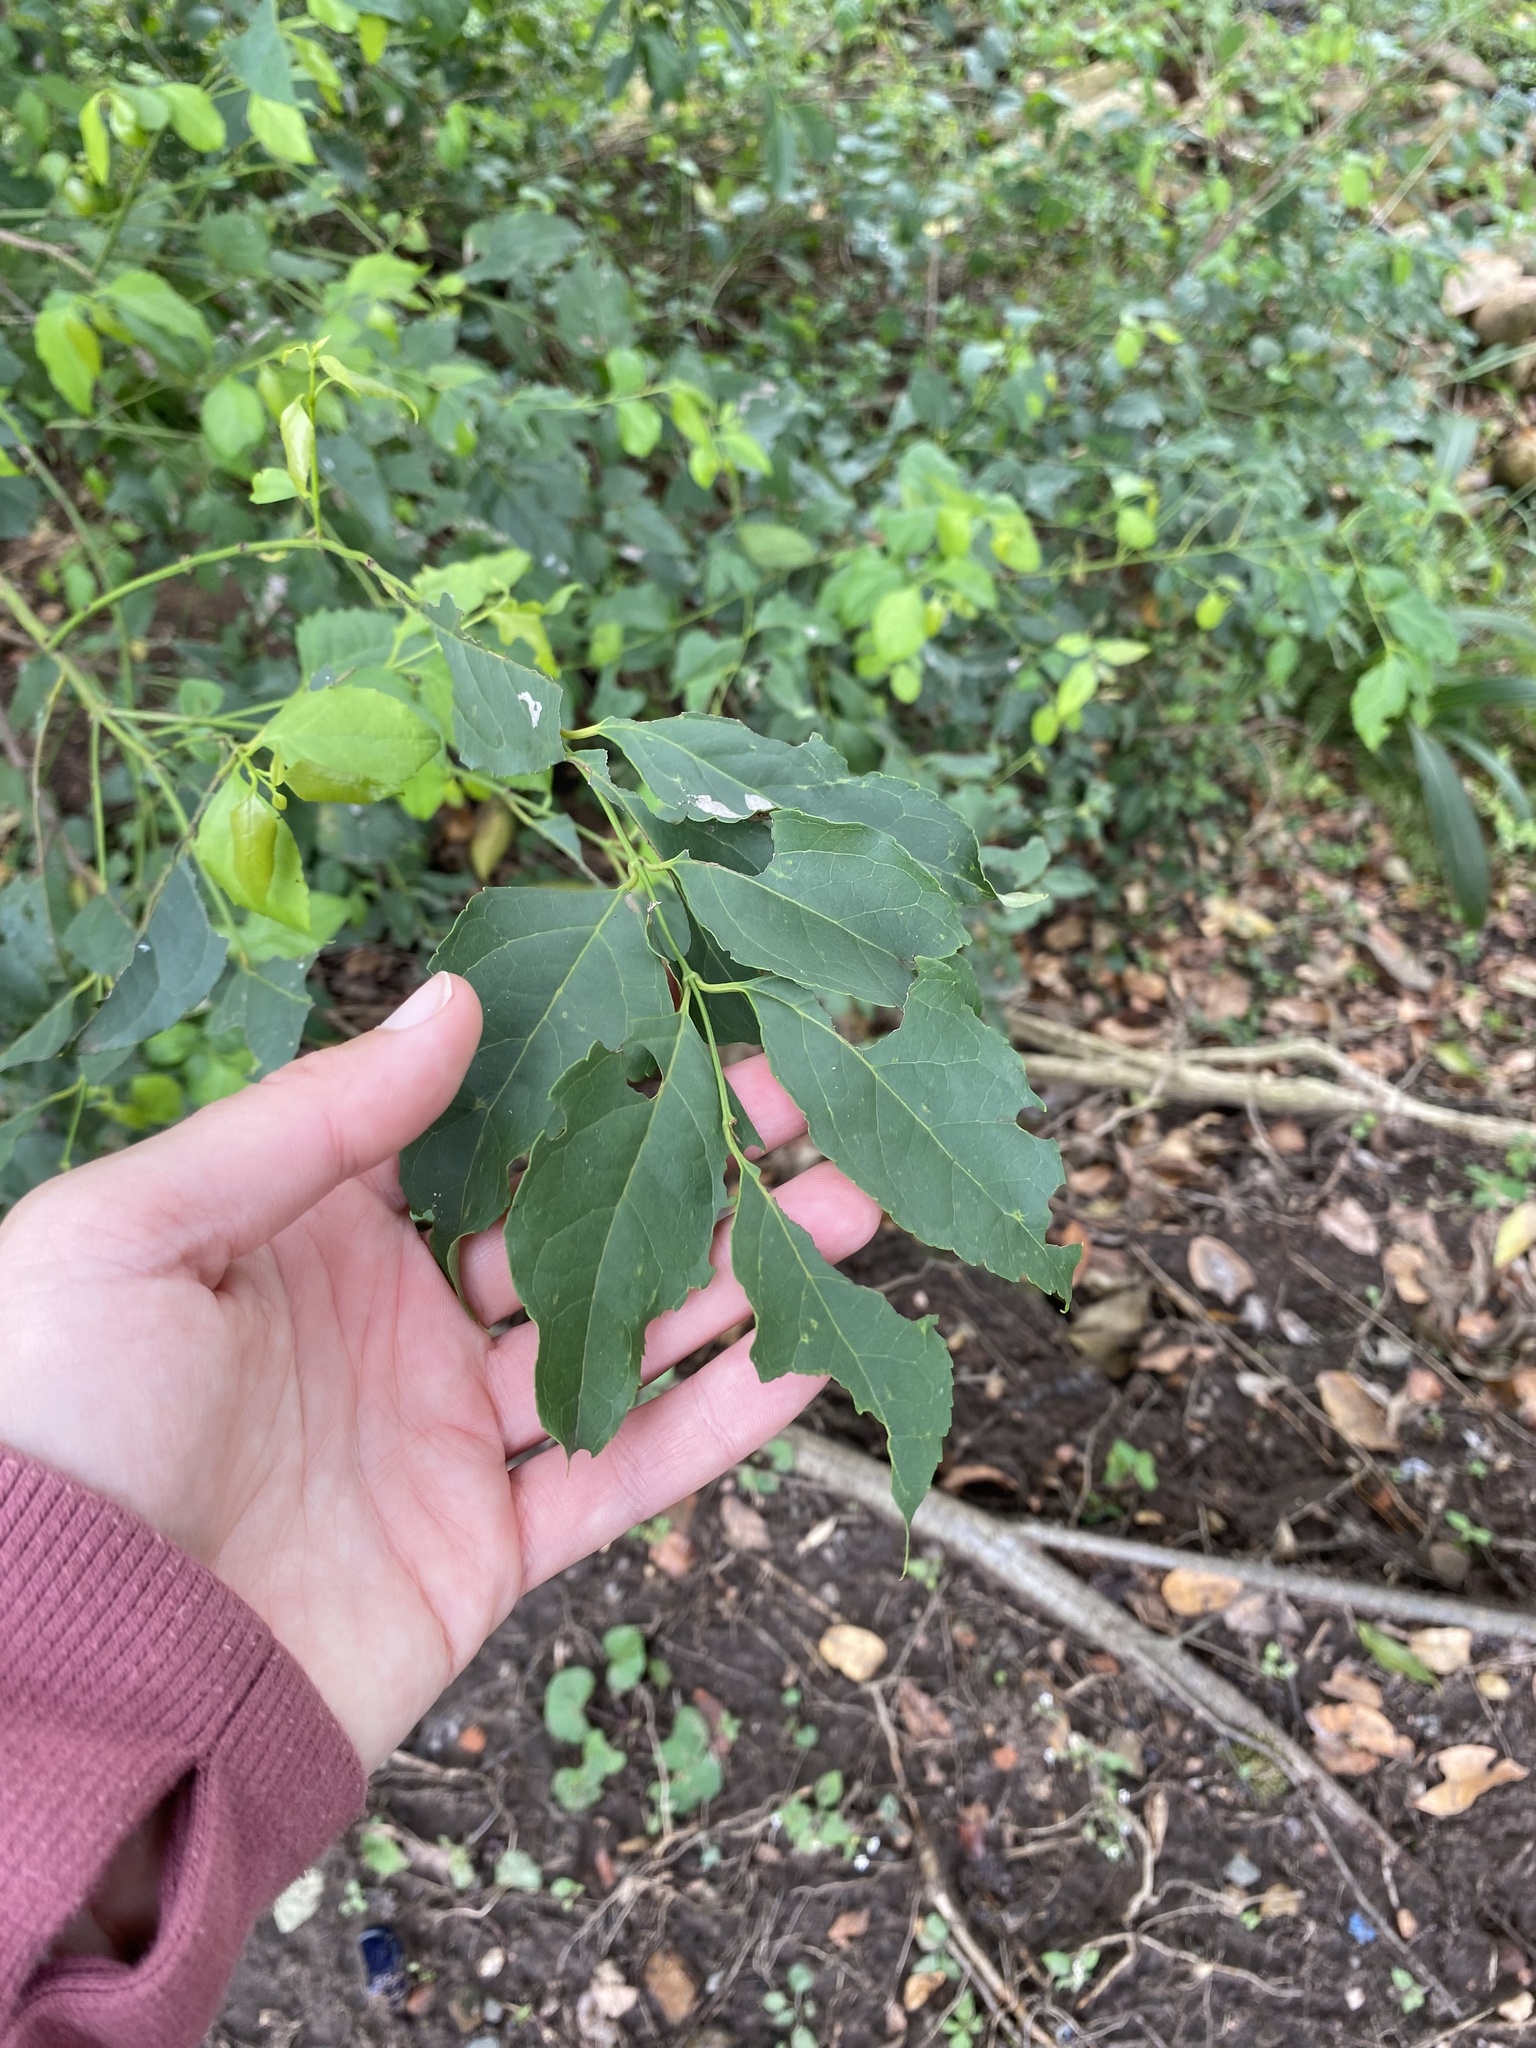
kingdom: Plantae
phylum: Tracheophyta
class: Magnoliopsida
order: Lamiales
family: Stilbaceae
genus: Halleria
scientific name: Halleria lucida
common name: Tree fuschia
